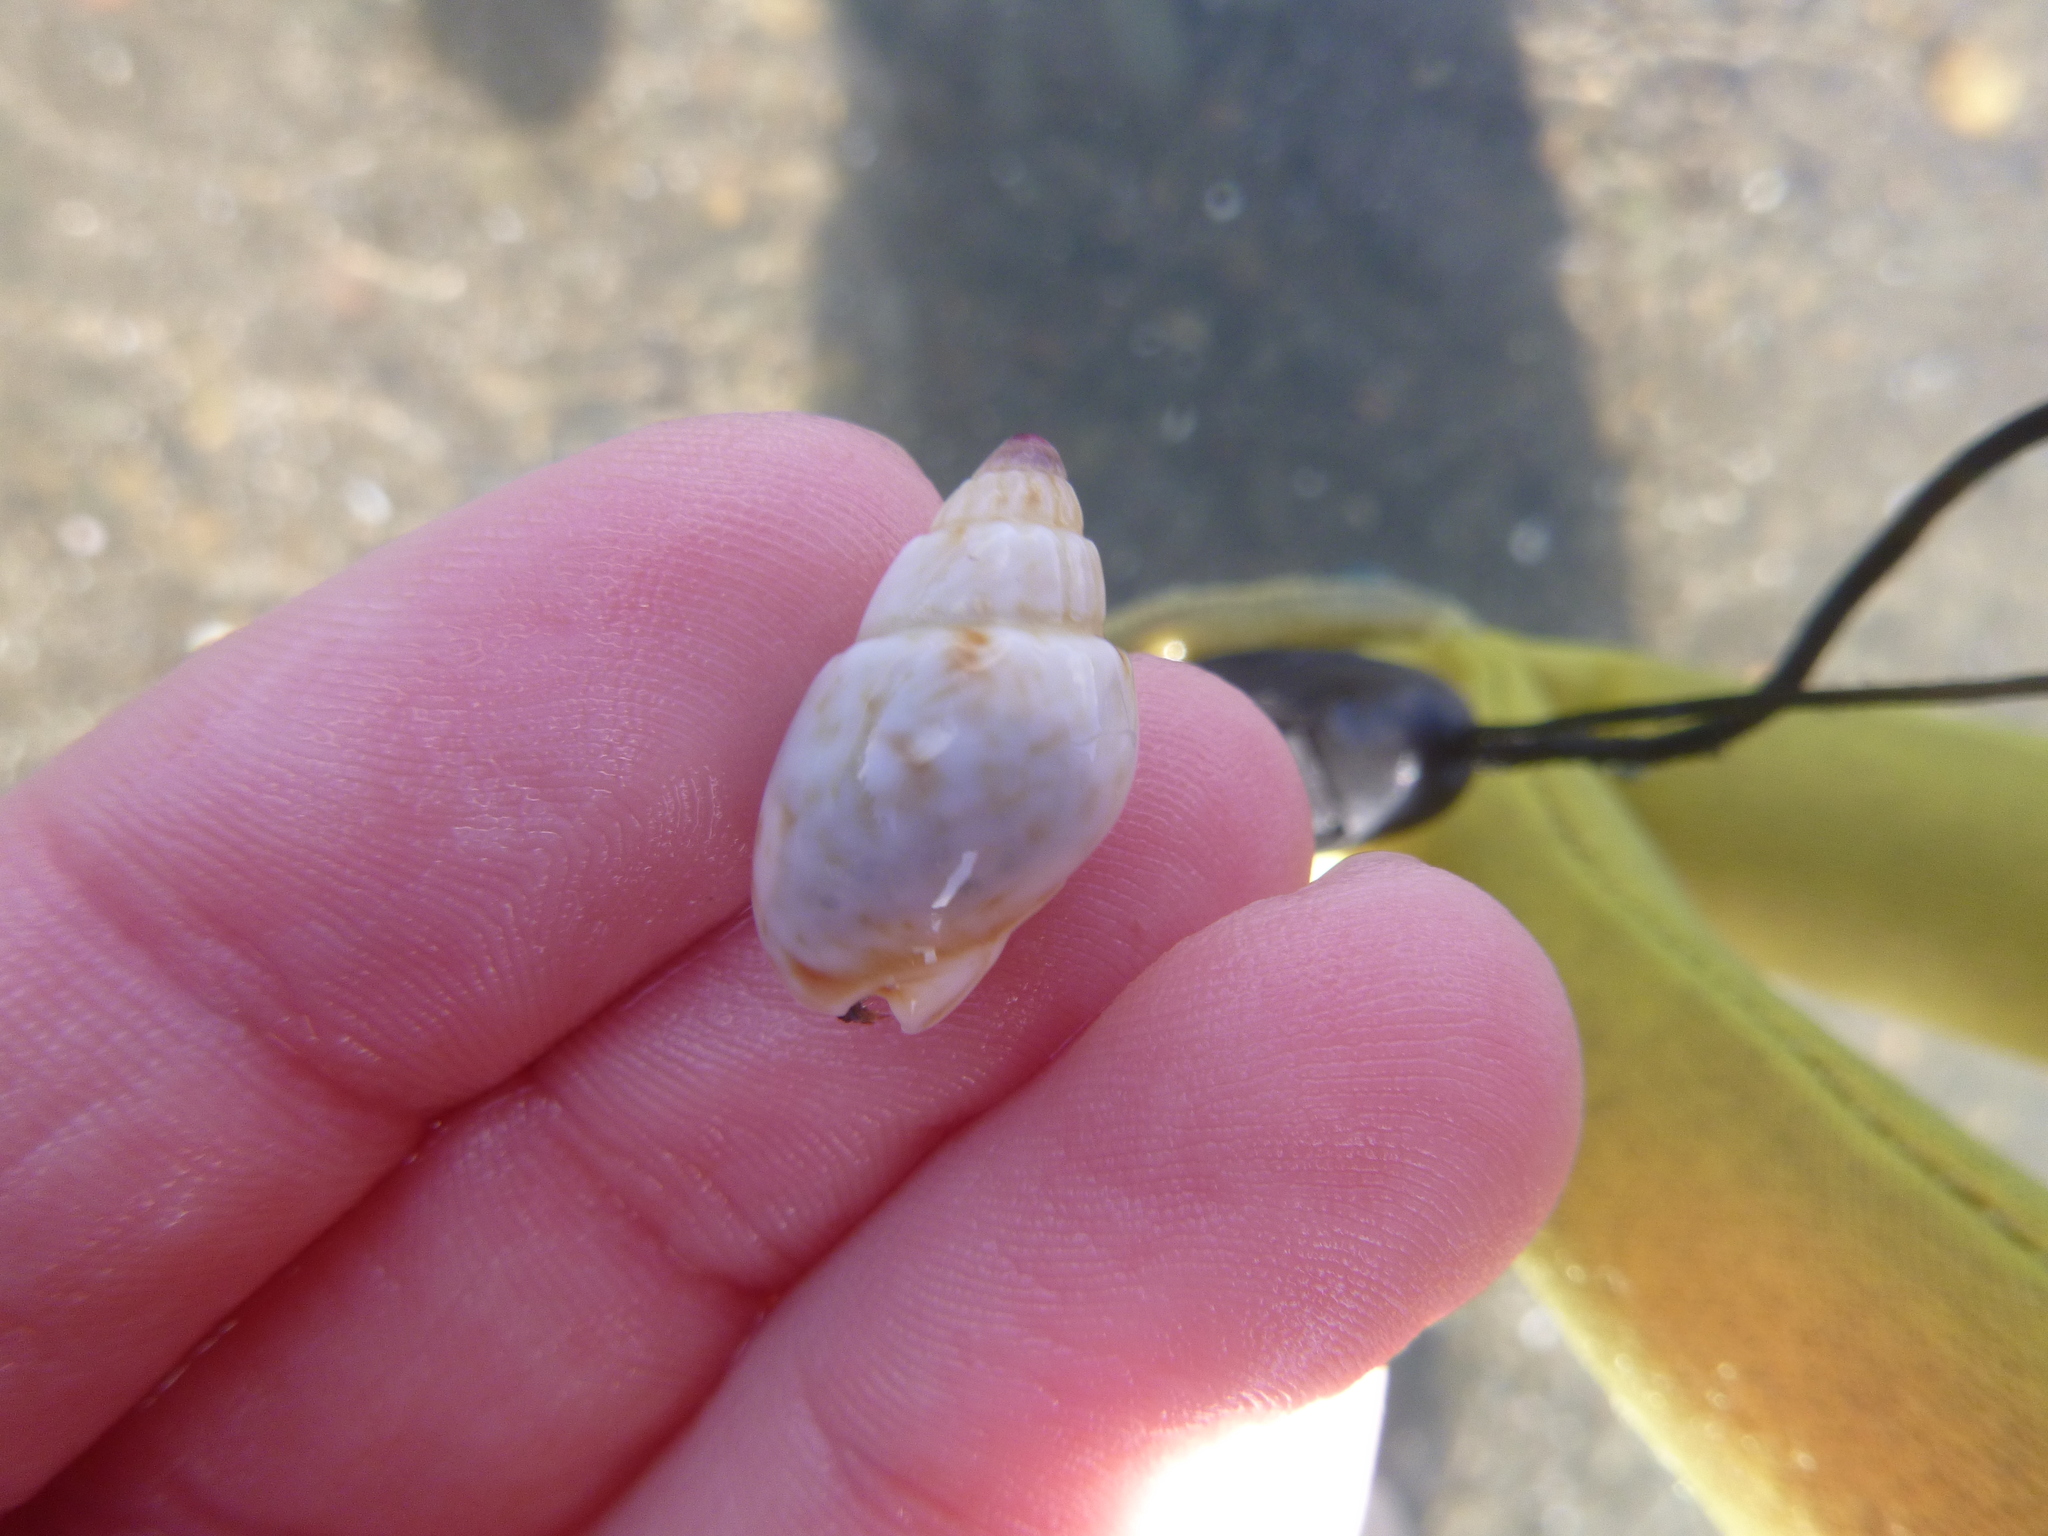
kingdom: Animalia
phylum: Mollusca
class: Gastropoda
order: Neogastropoda
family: Nassariidae
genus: Nassarius
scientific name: Nassarius spiratus
